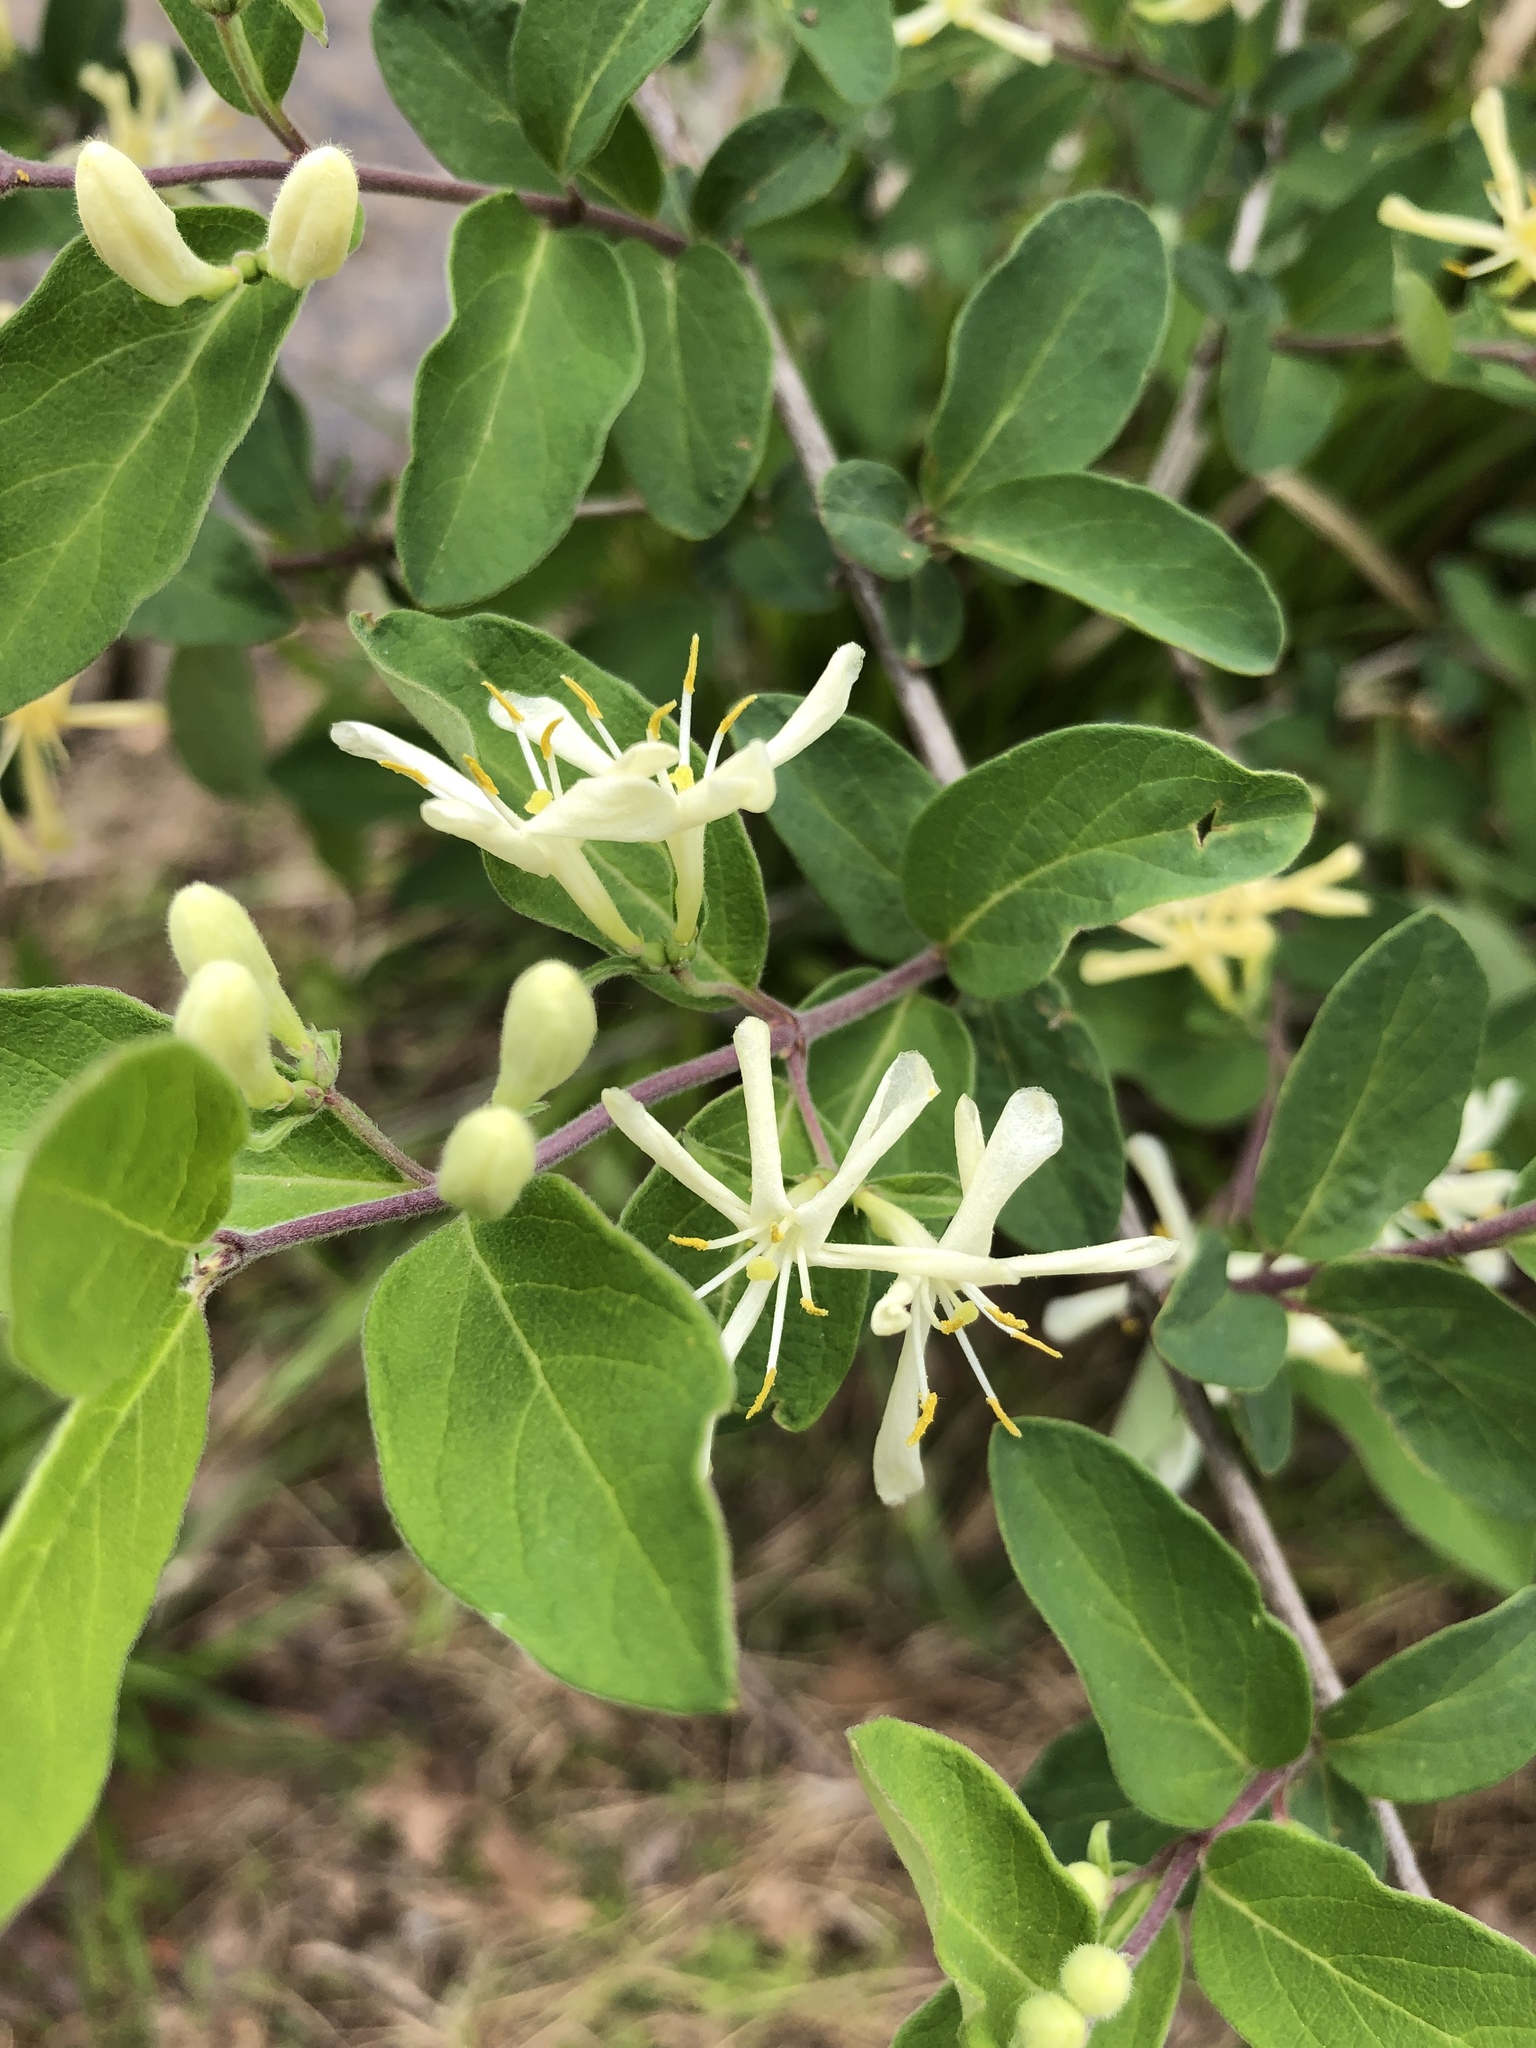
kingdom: Plantae
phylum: Tracheophyta
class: Magnoliopsida
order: Dipsacales
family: Caprifoliaceae
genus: Lonicera
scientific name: Lonicera morrowii
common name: Morrow's honeysuckle
